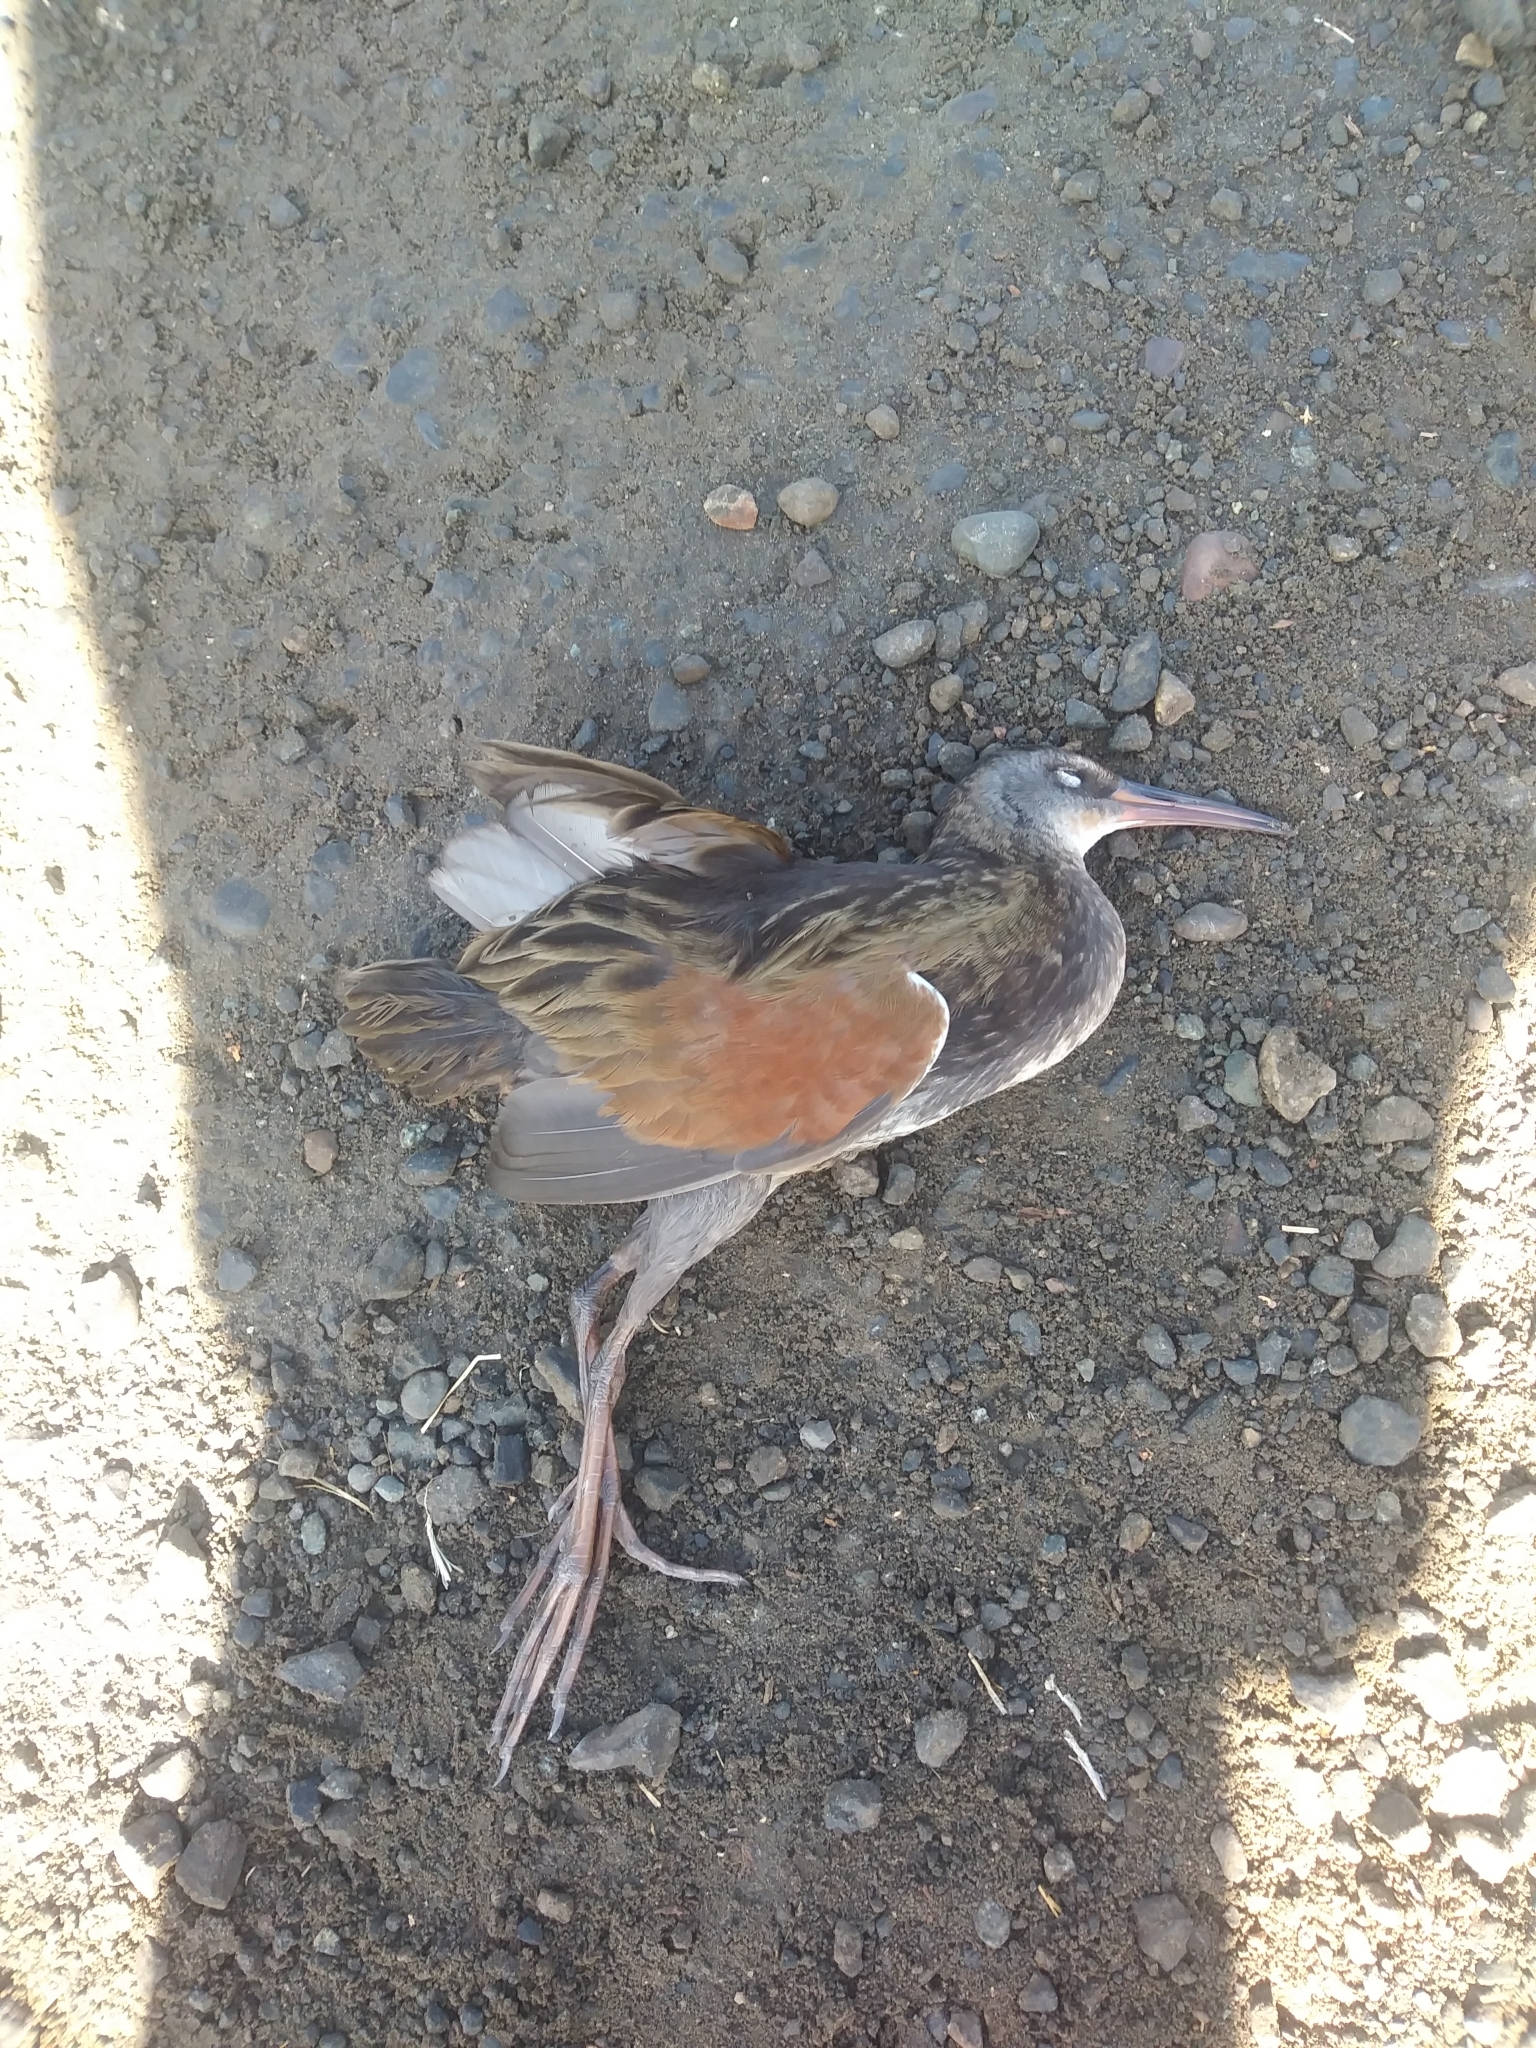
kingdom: Animalia
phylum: Chordata
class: Aves
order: Gruiformes
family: Rallidae
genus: Rallus
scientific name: Rallus limicola
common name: Virginia rail
